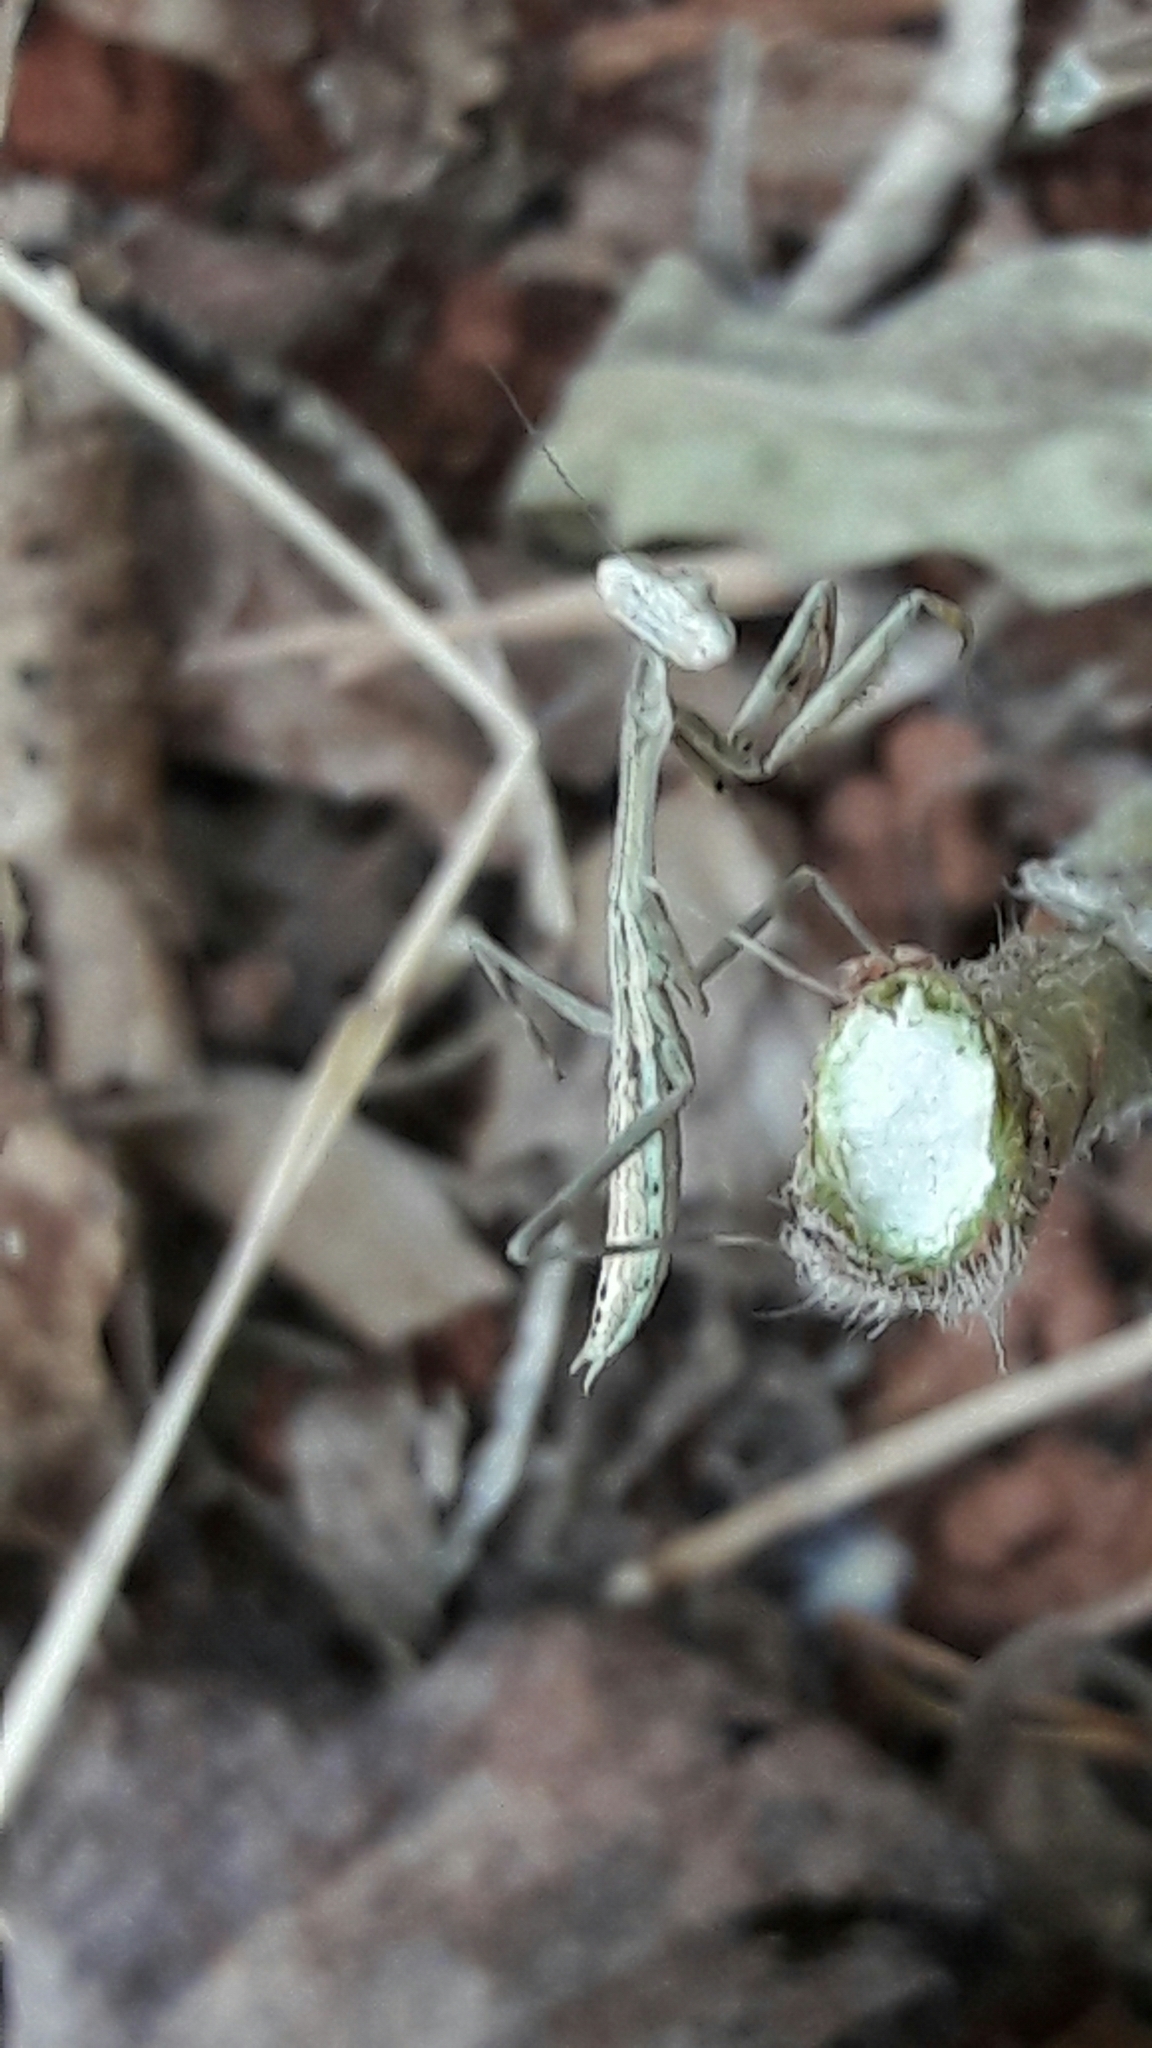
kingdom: Animalia
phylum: Arthropoda
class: Insecta
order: Mantodea
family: Mantidae
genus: Oxyopsis
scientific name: Oxyopsis
